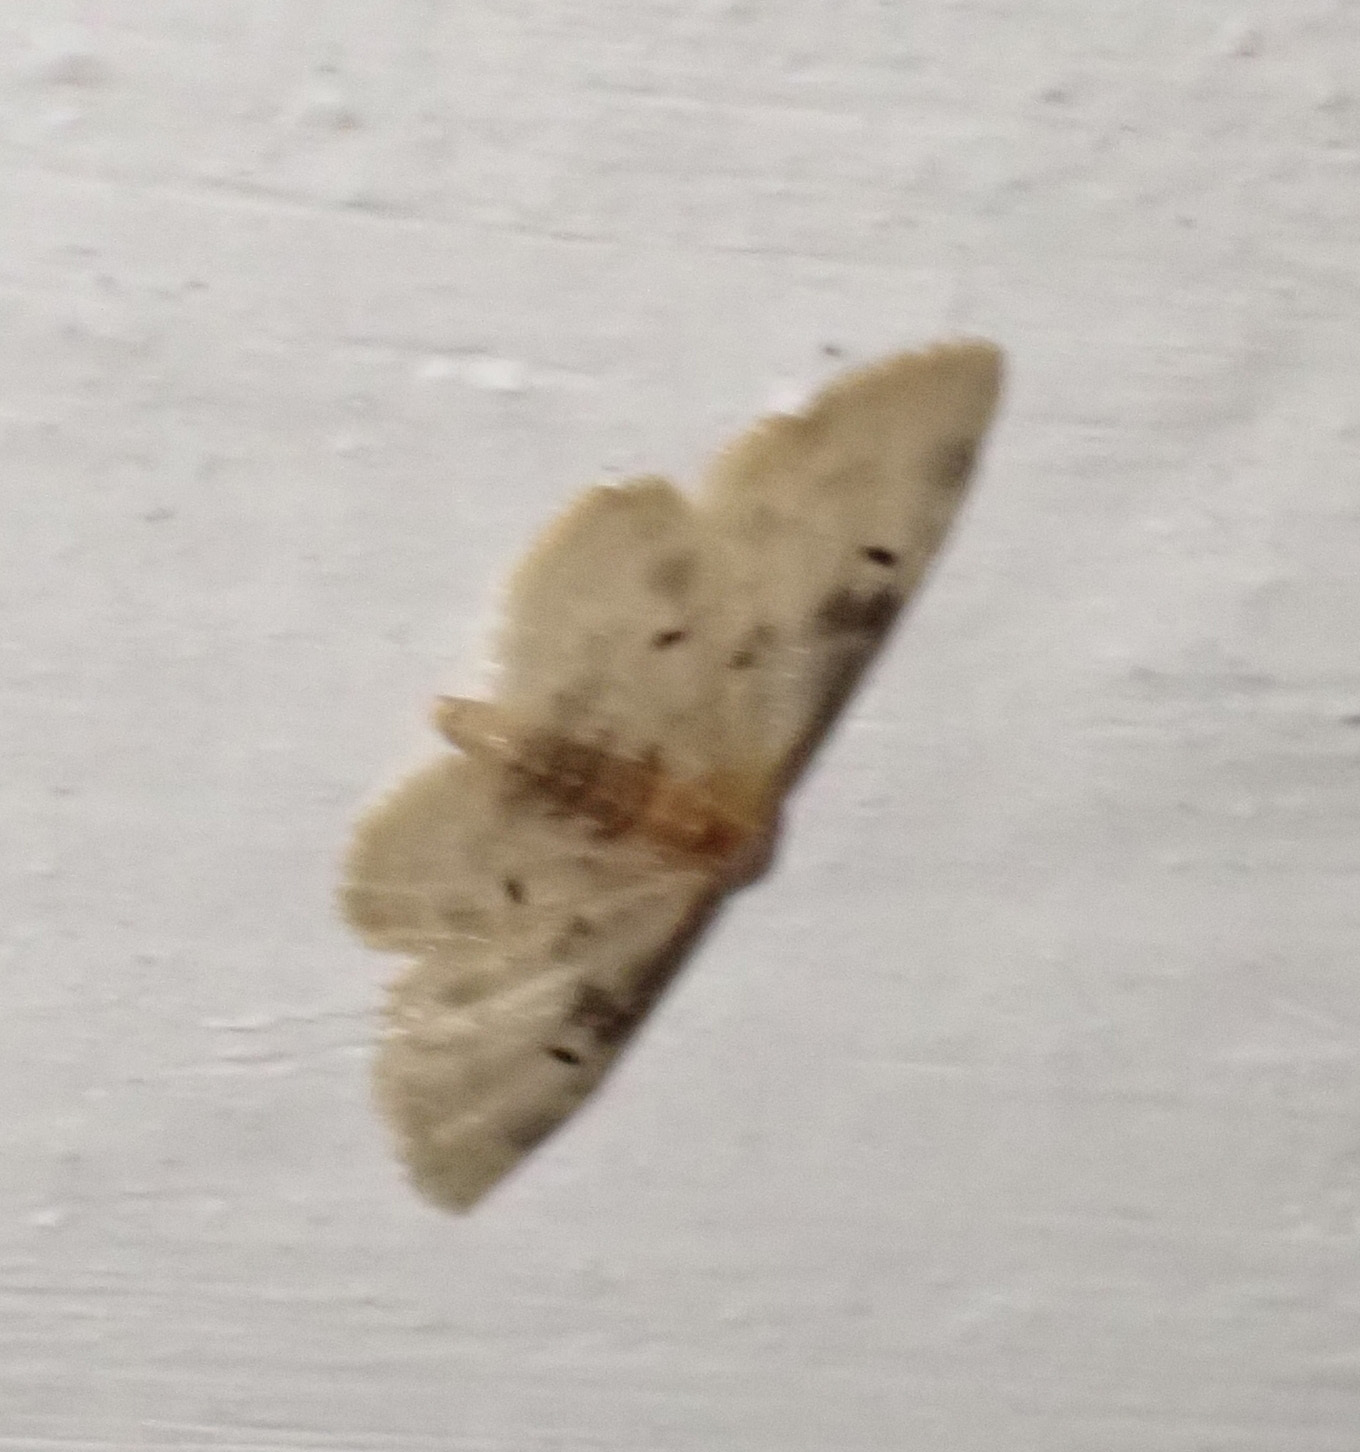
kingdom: Animalia
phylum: Arthropoda
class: Insecta
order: Lepidoptera
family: Geometridae
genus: Idaea
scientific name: Idaea filicata
